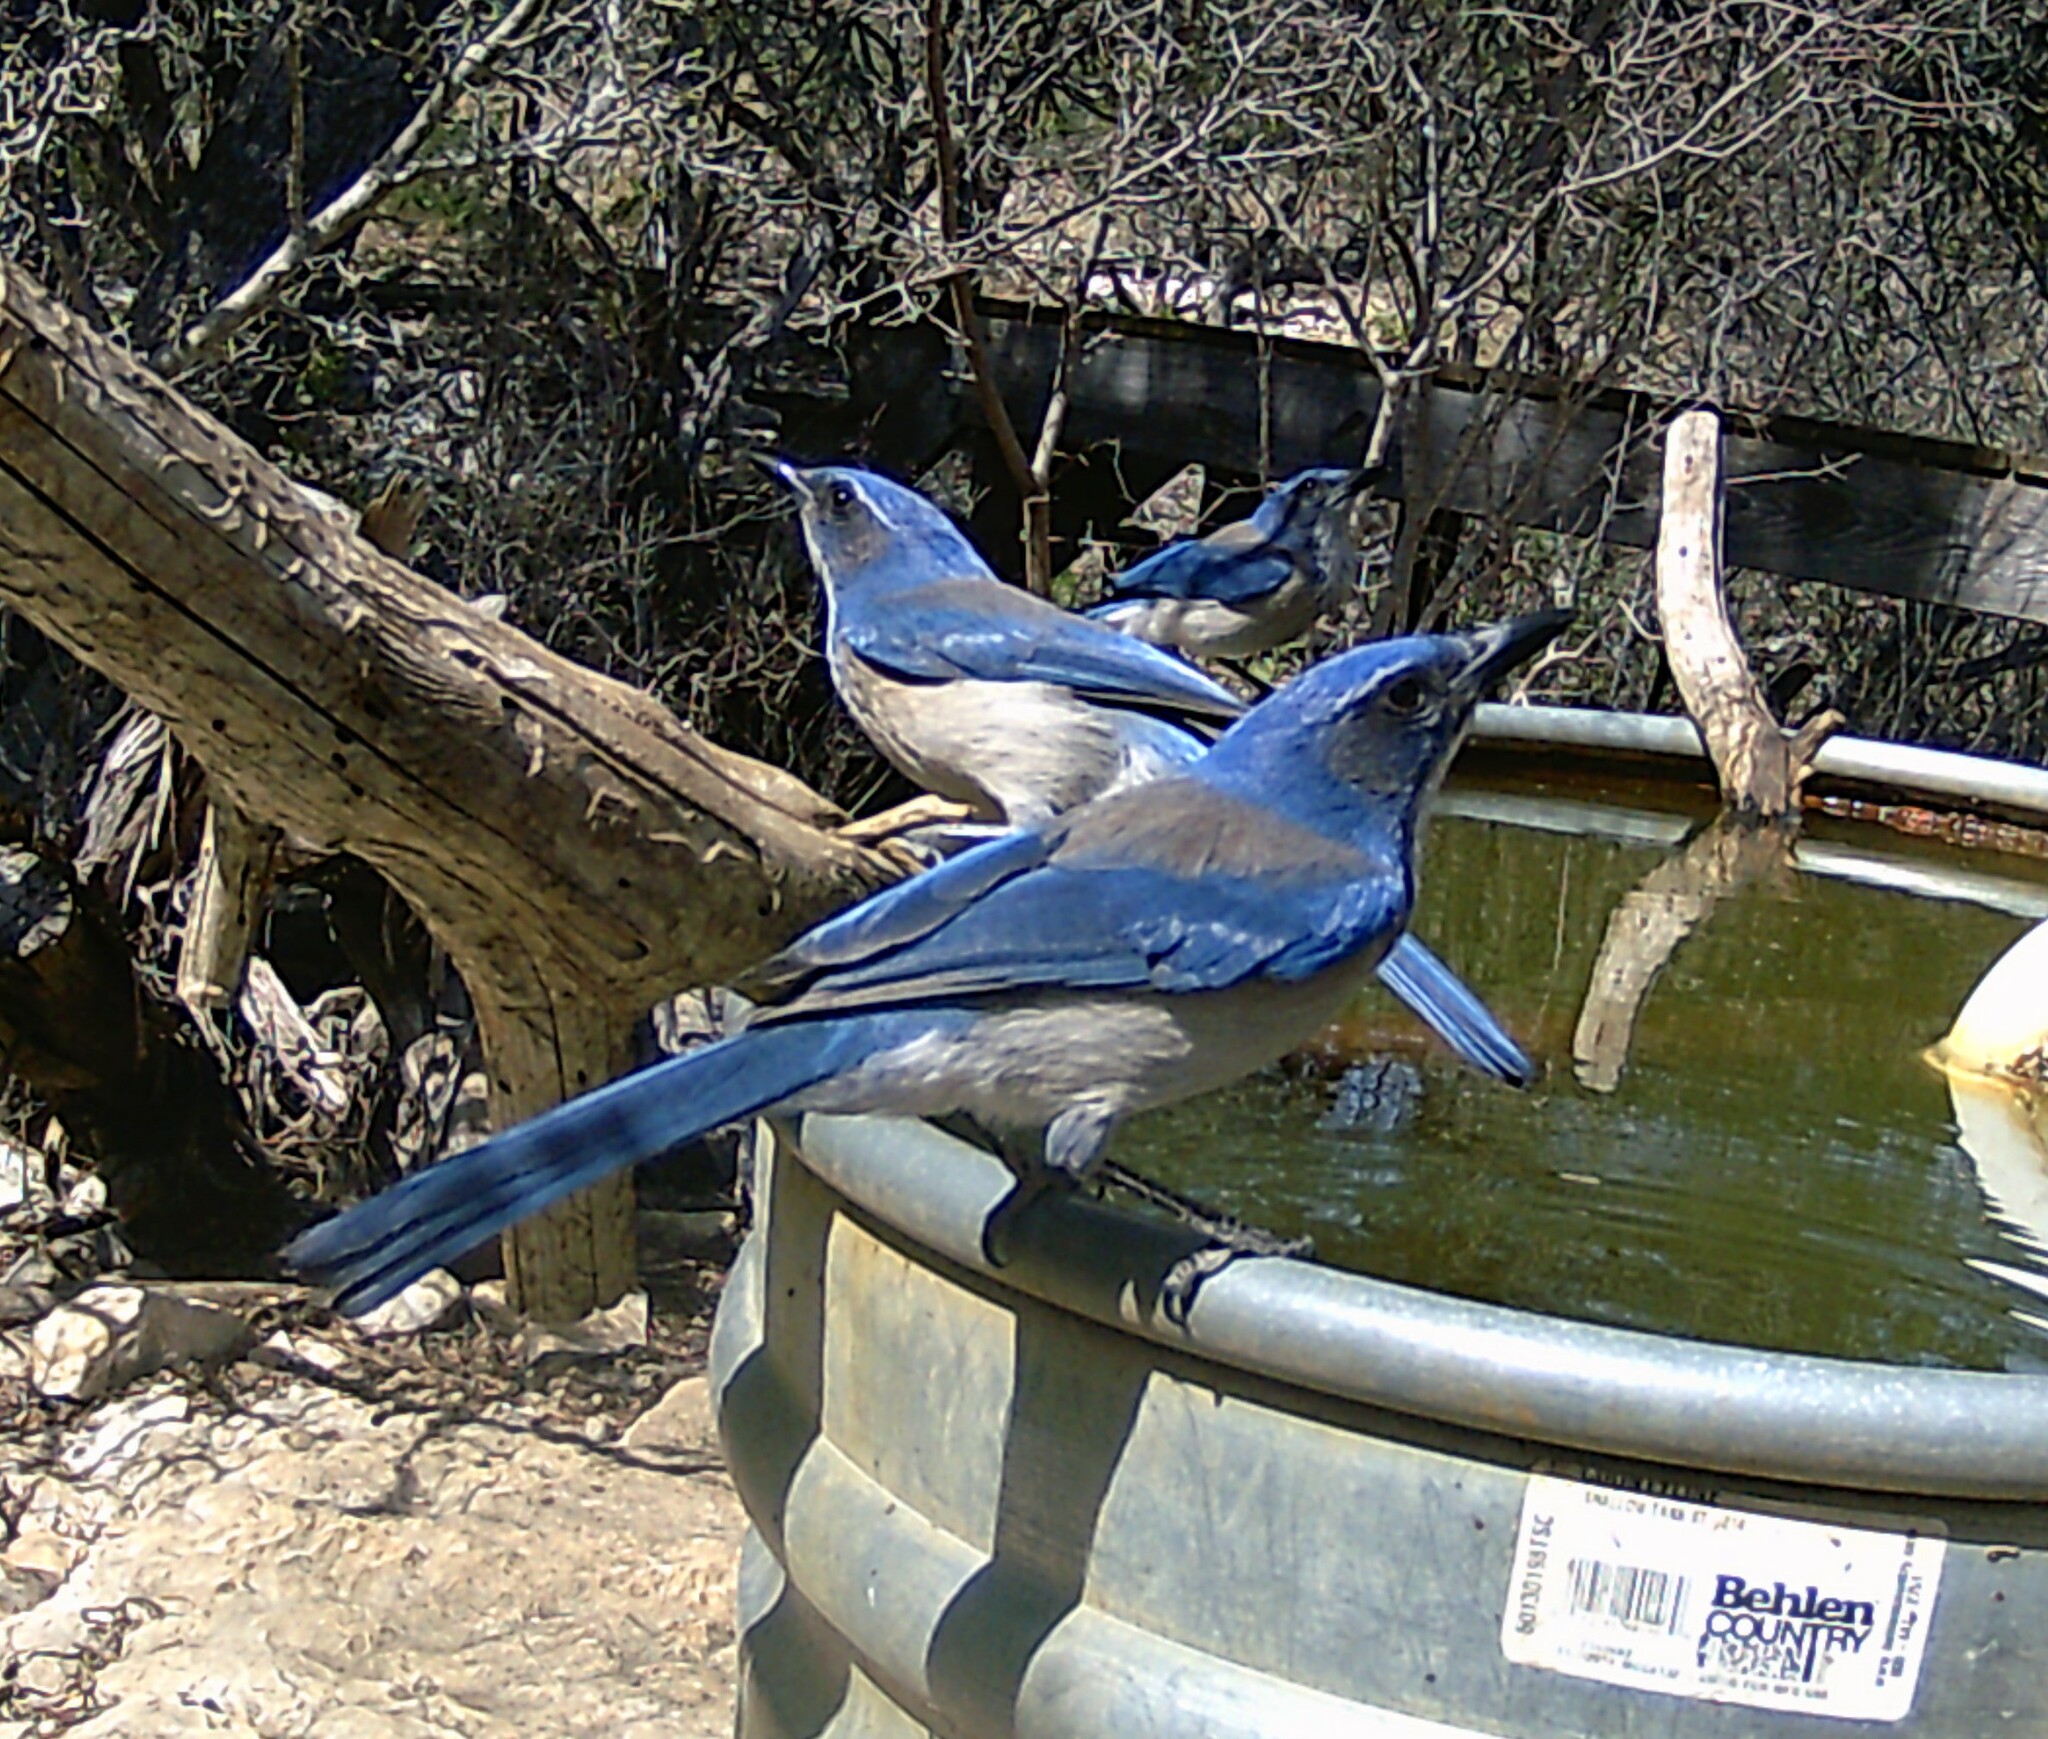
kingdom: Animalia
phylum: Chordata
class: Aves
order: Passeriformes
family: Corvidae
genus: Aphelocoma
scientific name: Aphelocoma woodhouseii
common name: Woodhouse's scrub-jay
